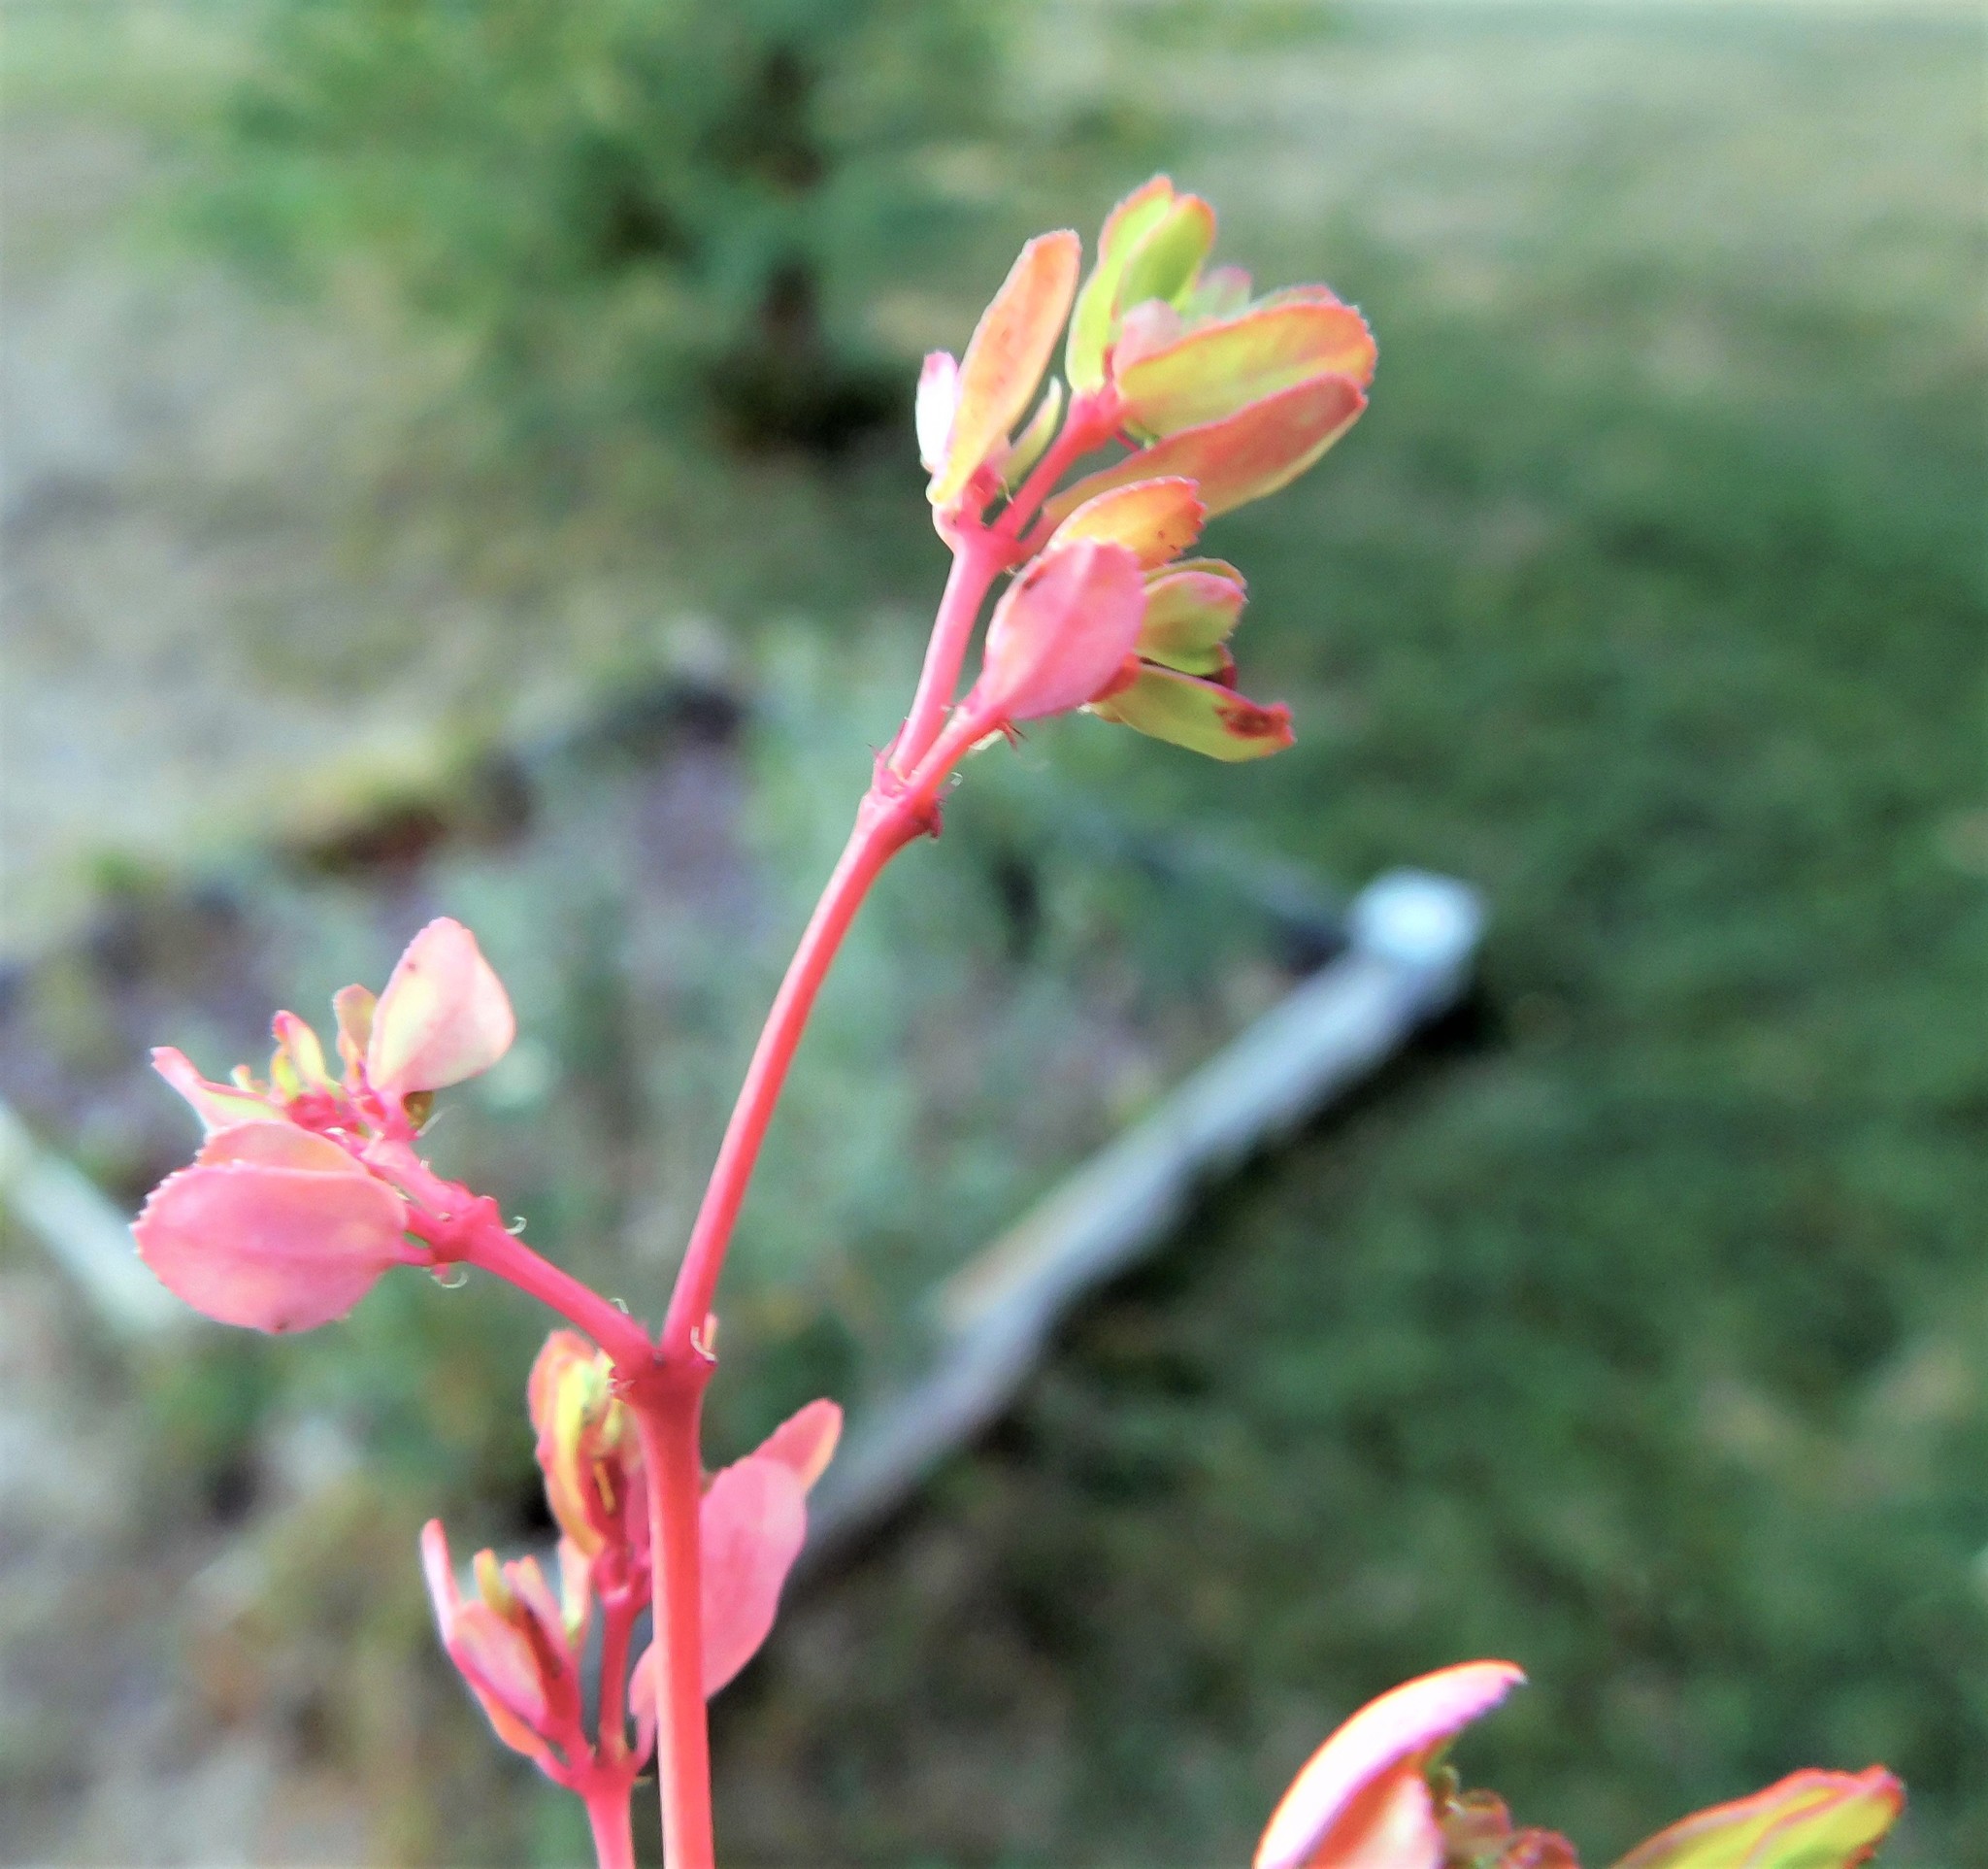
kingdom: Plantae
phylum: Tracheophyta
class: Magnoliopsida
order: Malpighiales
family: Euphorbiaceae
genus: Euphorbia
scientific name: Euphorbia serpillifolia
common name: Thyme-leaf spurge
